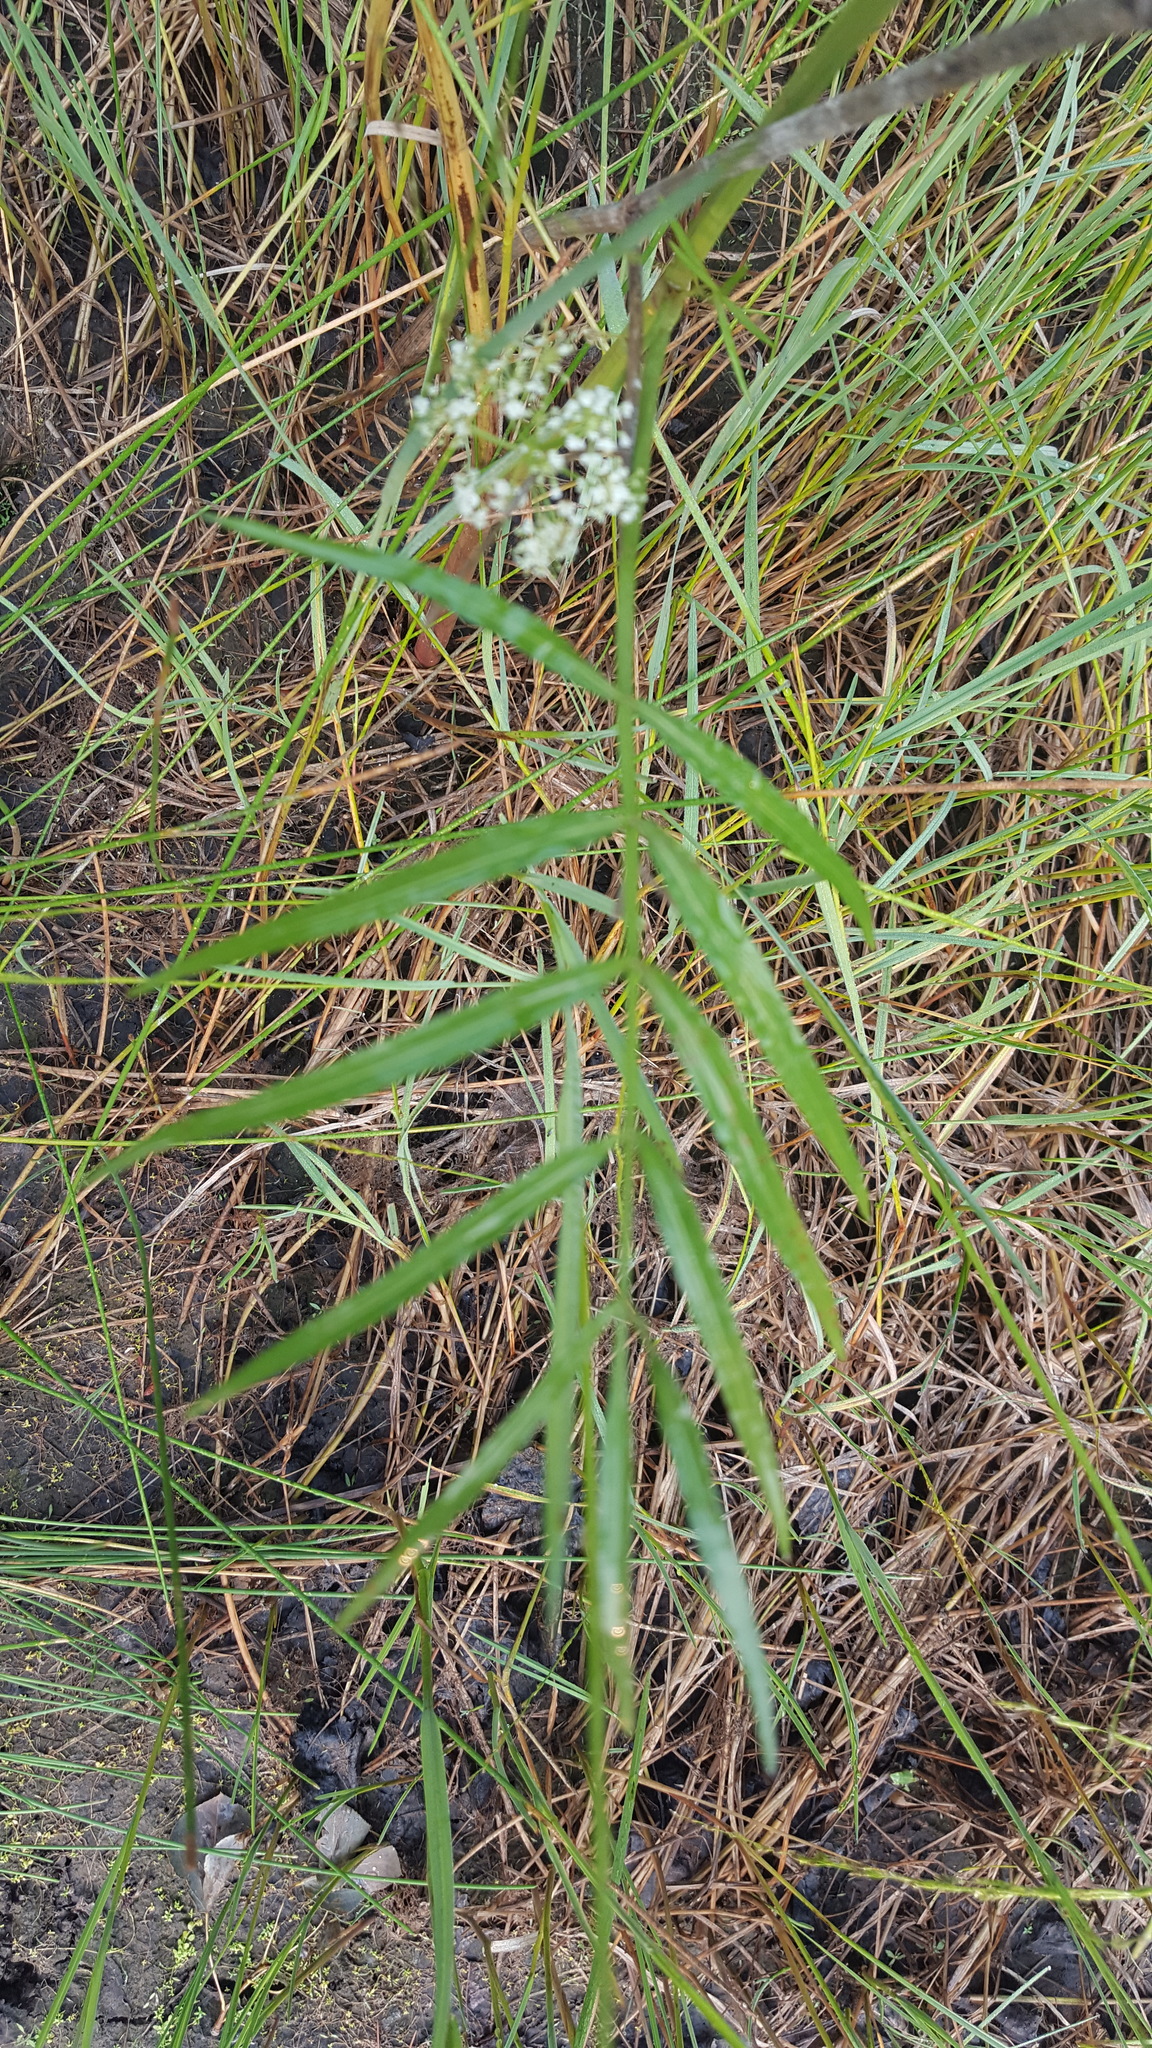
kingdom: Plantae
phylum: Tracheophyta
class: Magnoliopsida
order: Apiales
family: Apiaceae
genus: Sium
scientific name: Sium suave
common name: Hemlock water-parsnip
